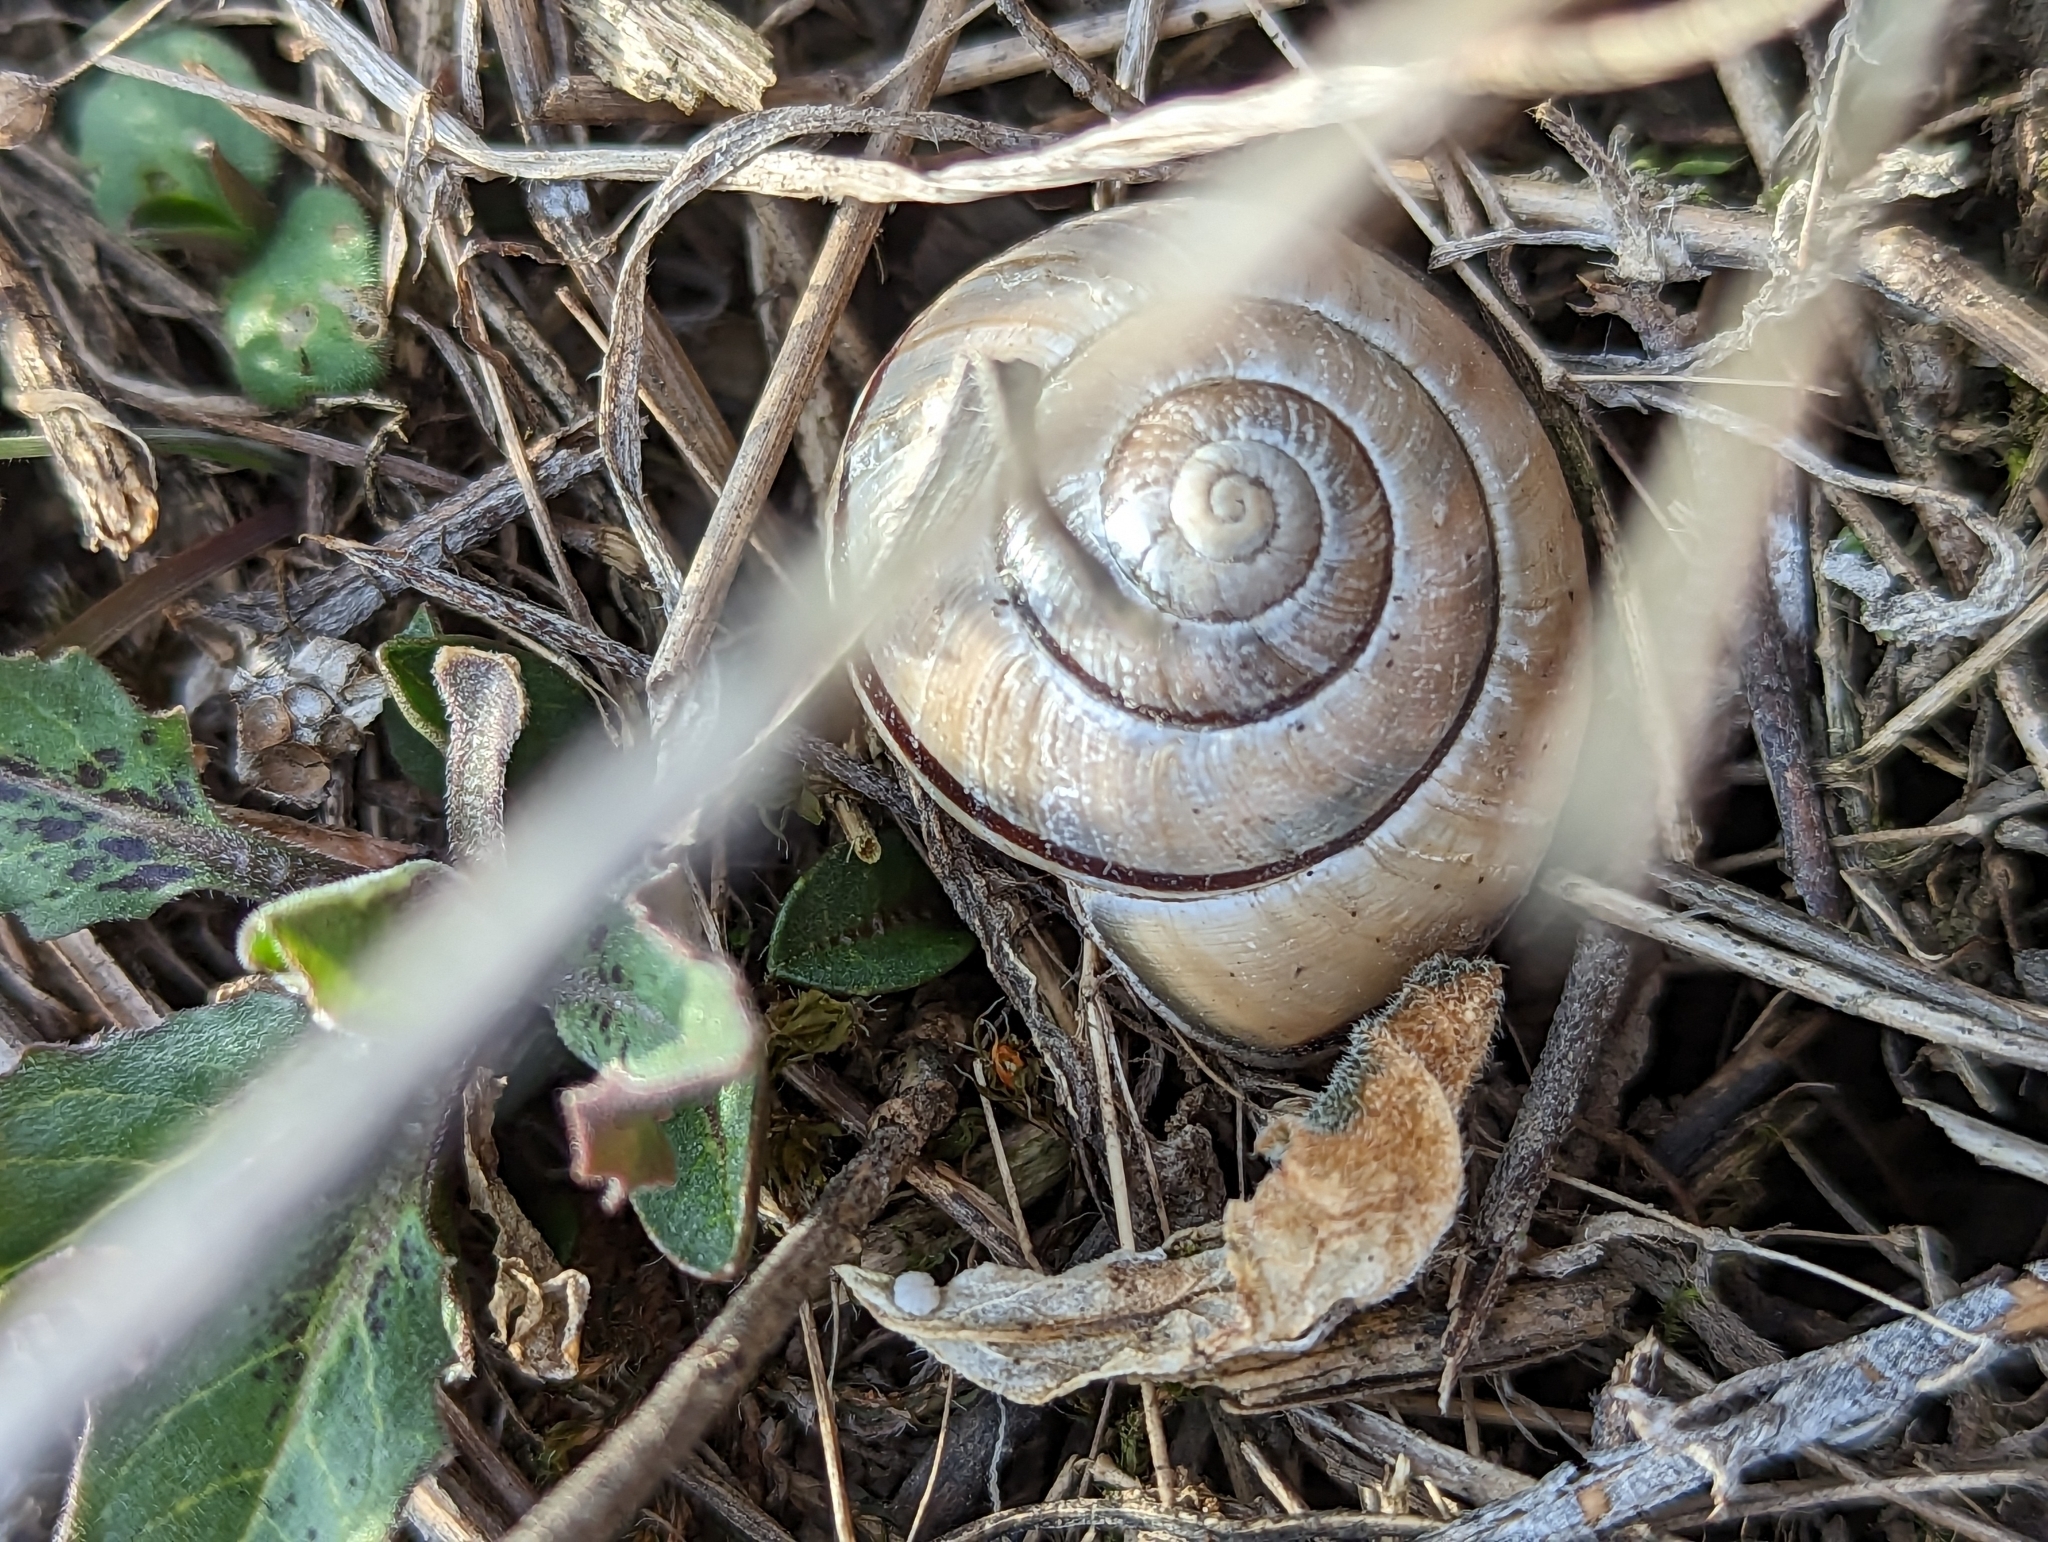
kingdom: Animalia
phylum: Mollusca
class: Gastropoda
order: Stylommatophora
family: Helicidae
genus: Cepaea
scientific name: Cepaea nemoralis
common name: Grovesnail
